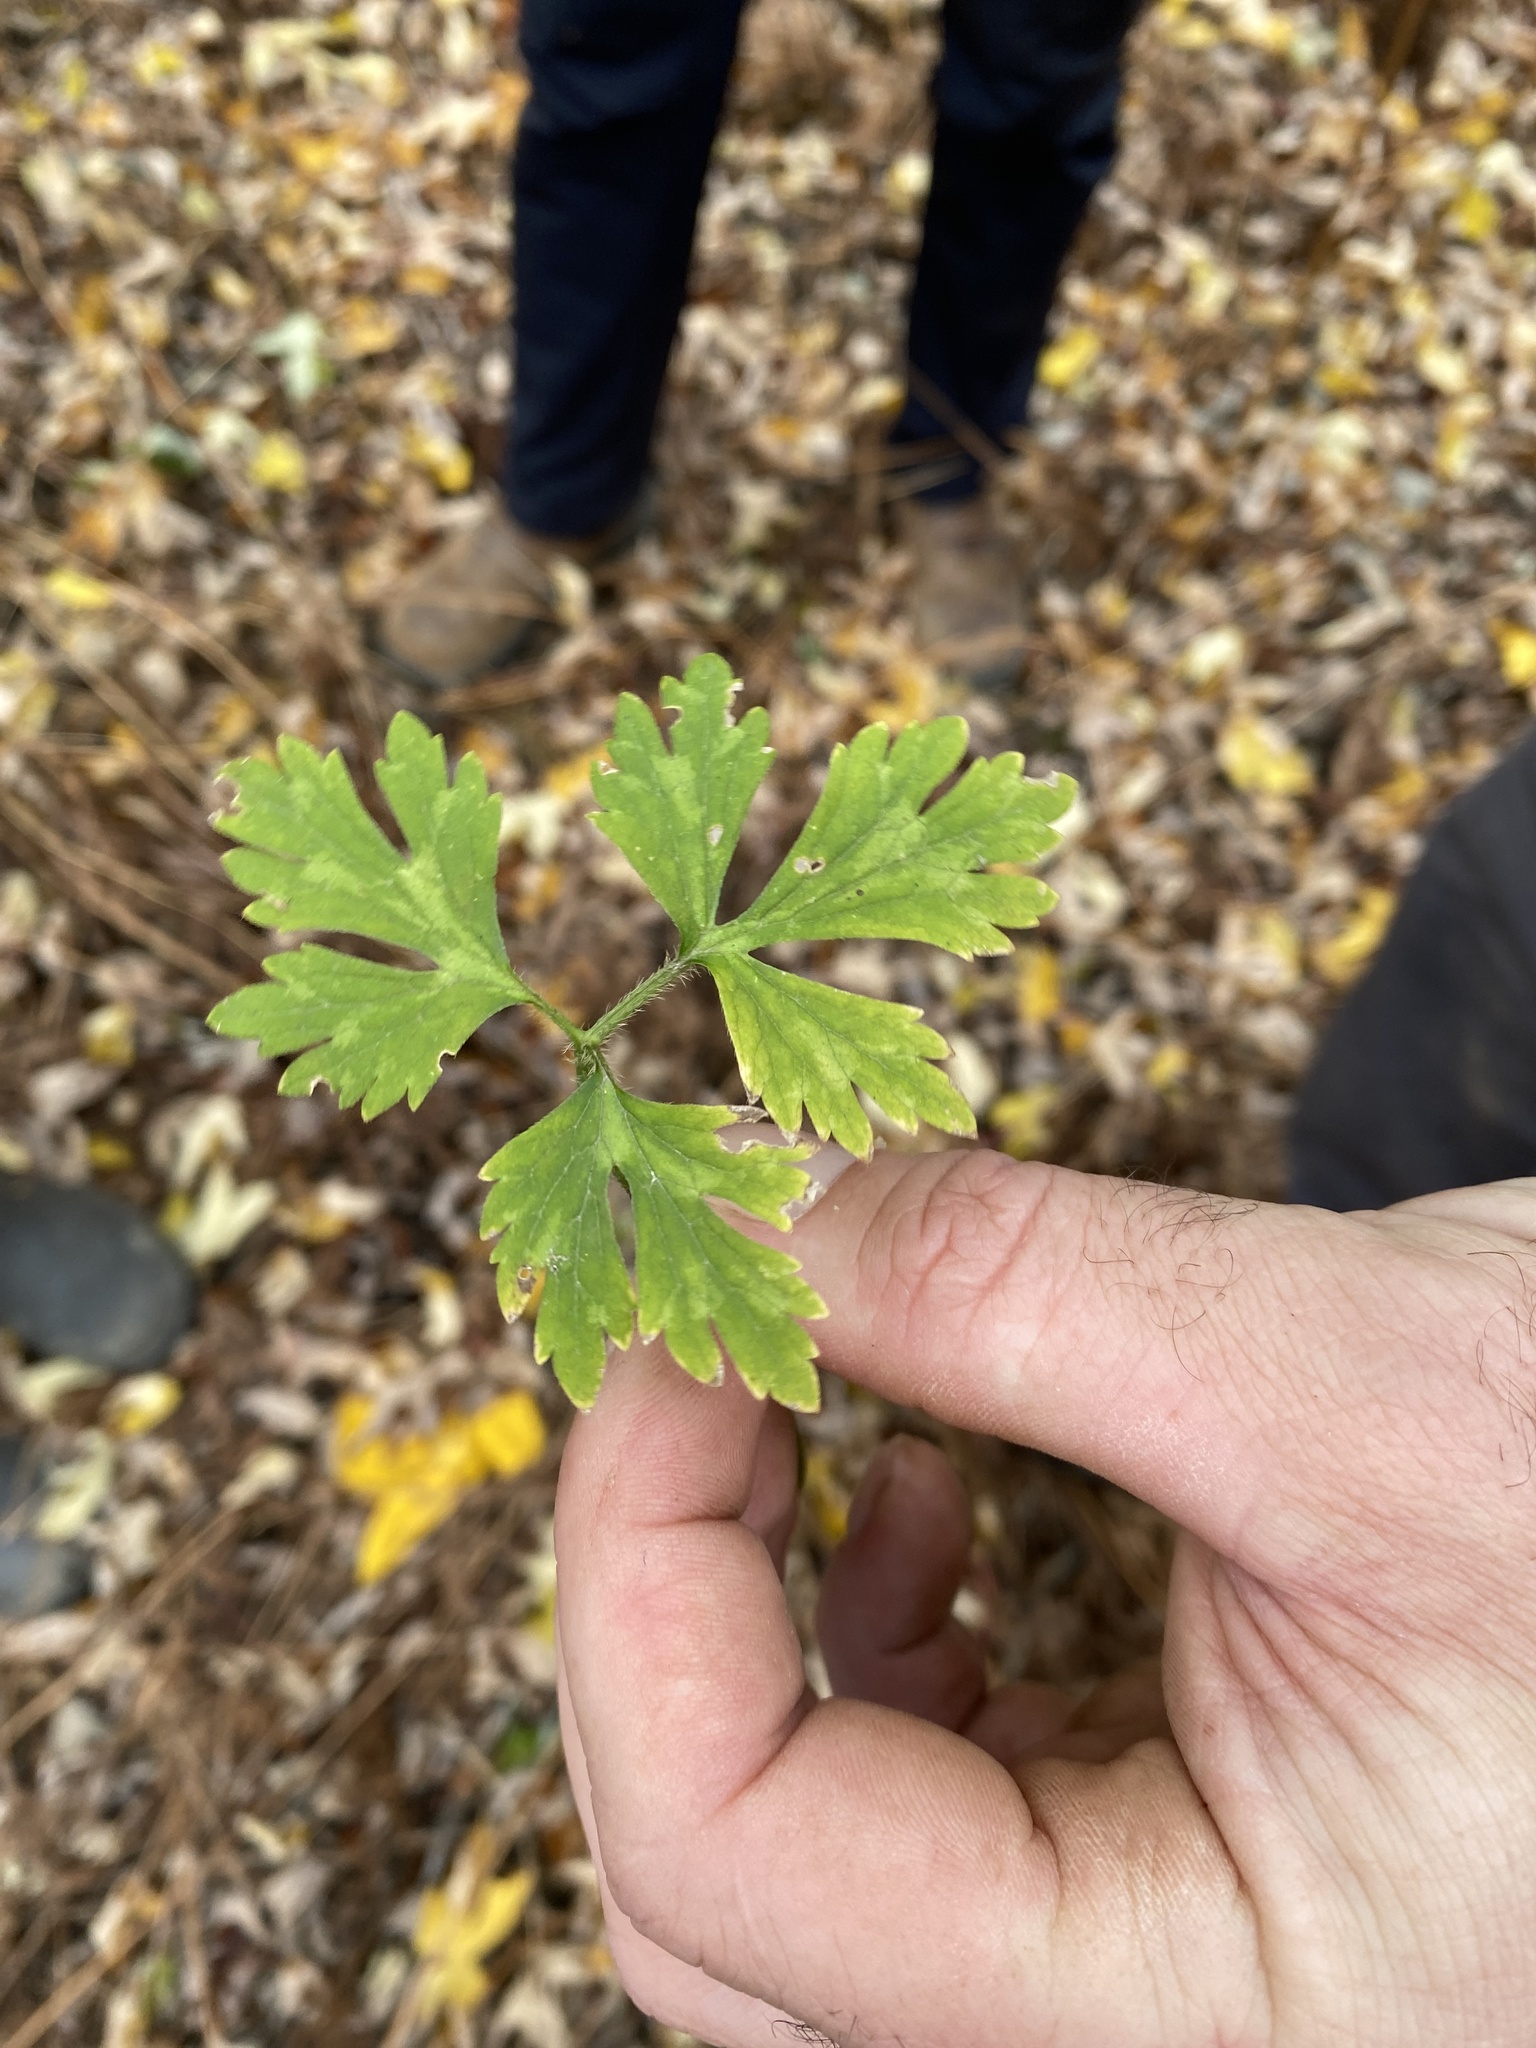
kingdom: Plantae
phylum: Tracheophyta
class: Magnoliopsida
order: Ranunculales
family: Ranunculaceae
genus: Ranunculus
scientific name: Ranunculus repens
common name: Creeping buttercup
